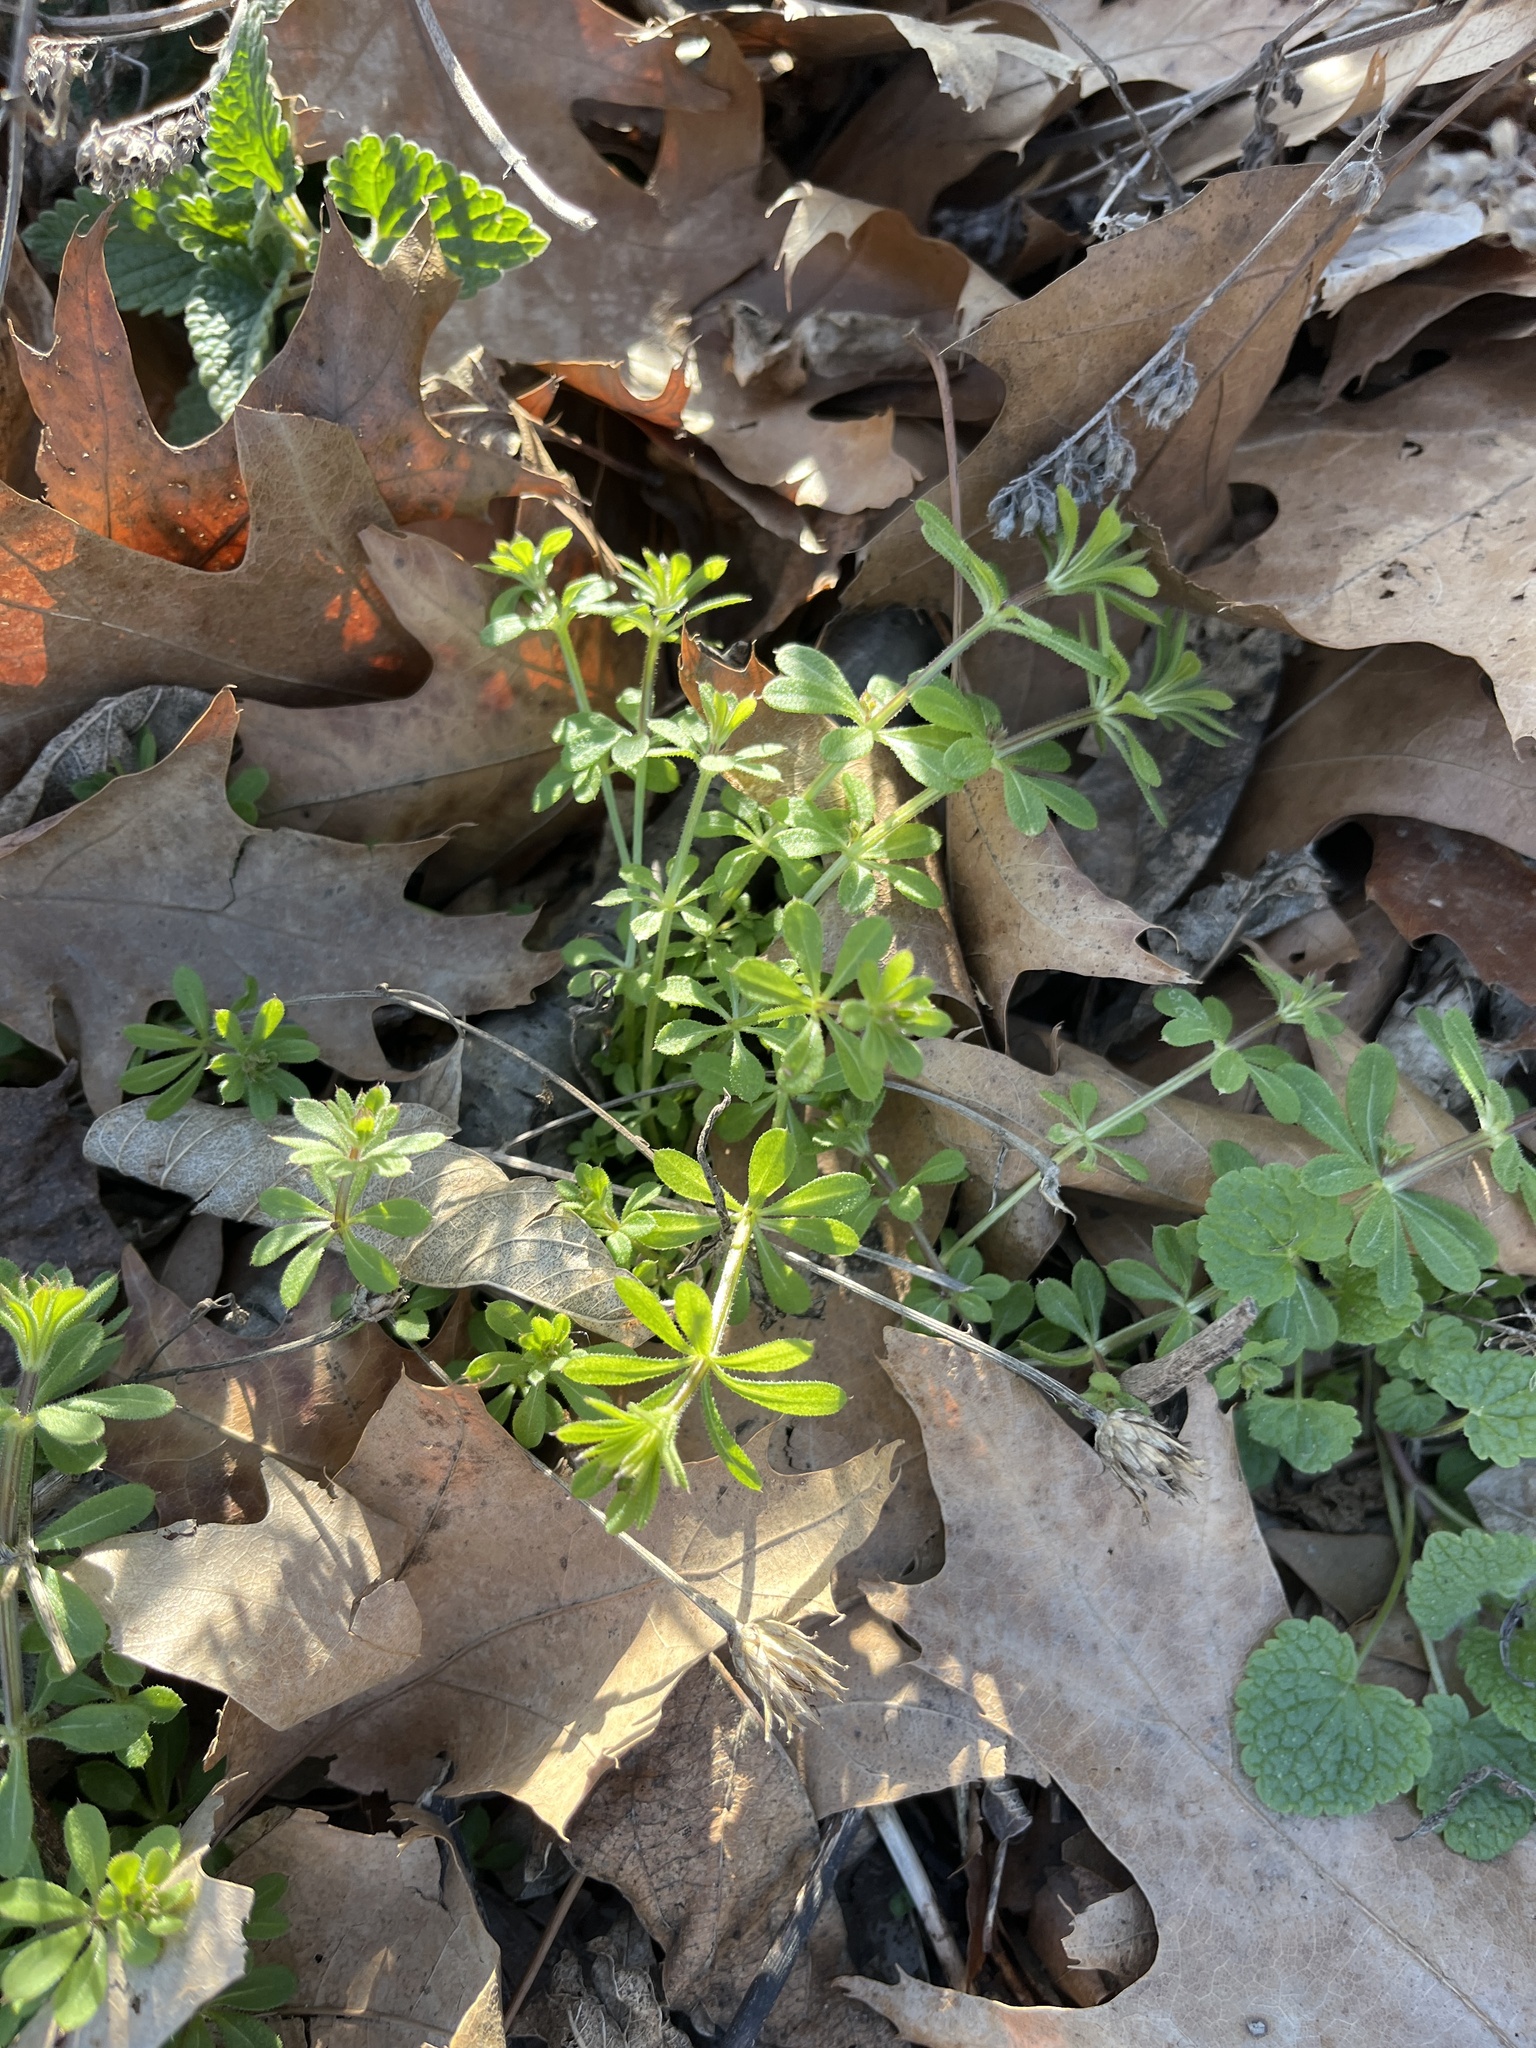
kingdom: Plantae
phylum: Tracheophyta
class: Magnoliopsida
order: Gentianales
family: Rubiaceae
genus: Galium
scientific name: Galium aparine
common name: Cleavers
